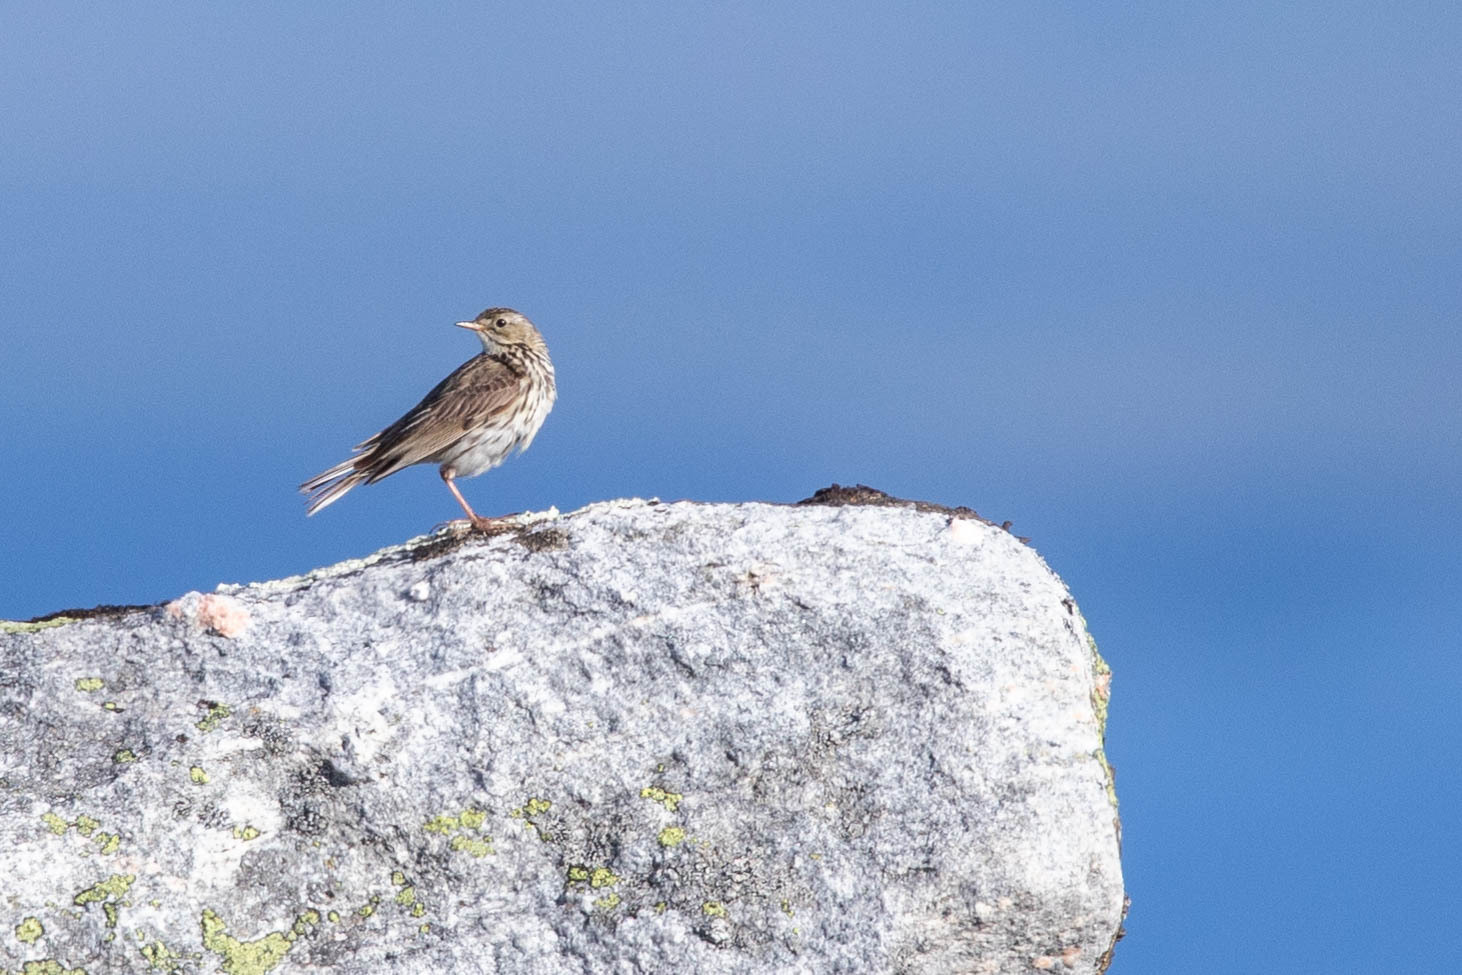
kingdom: Animalia
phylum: Chordata
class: Aves
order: Passeriformes
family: Motacillidae
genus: Anthus
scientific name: Anthus pratensis
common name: Meadow pipit
